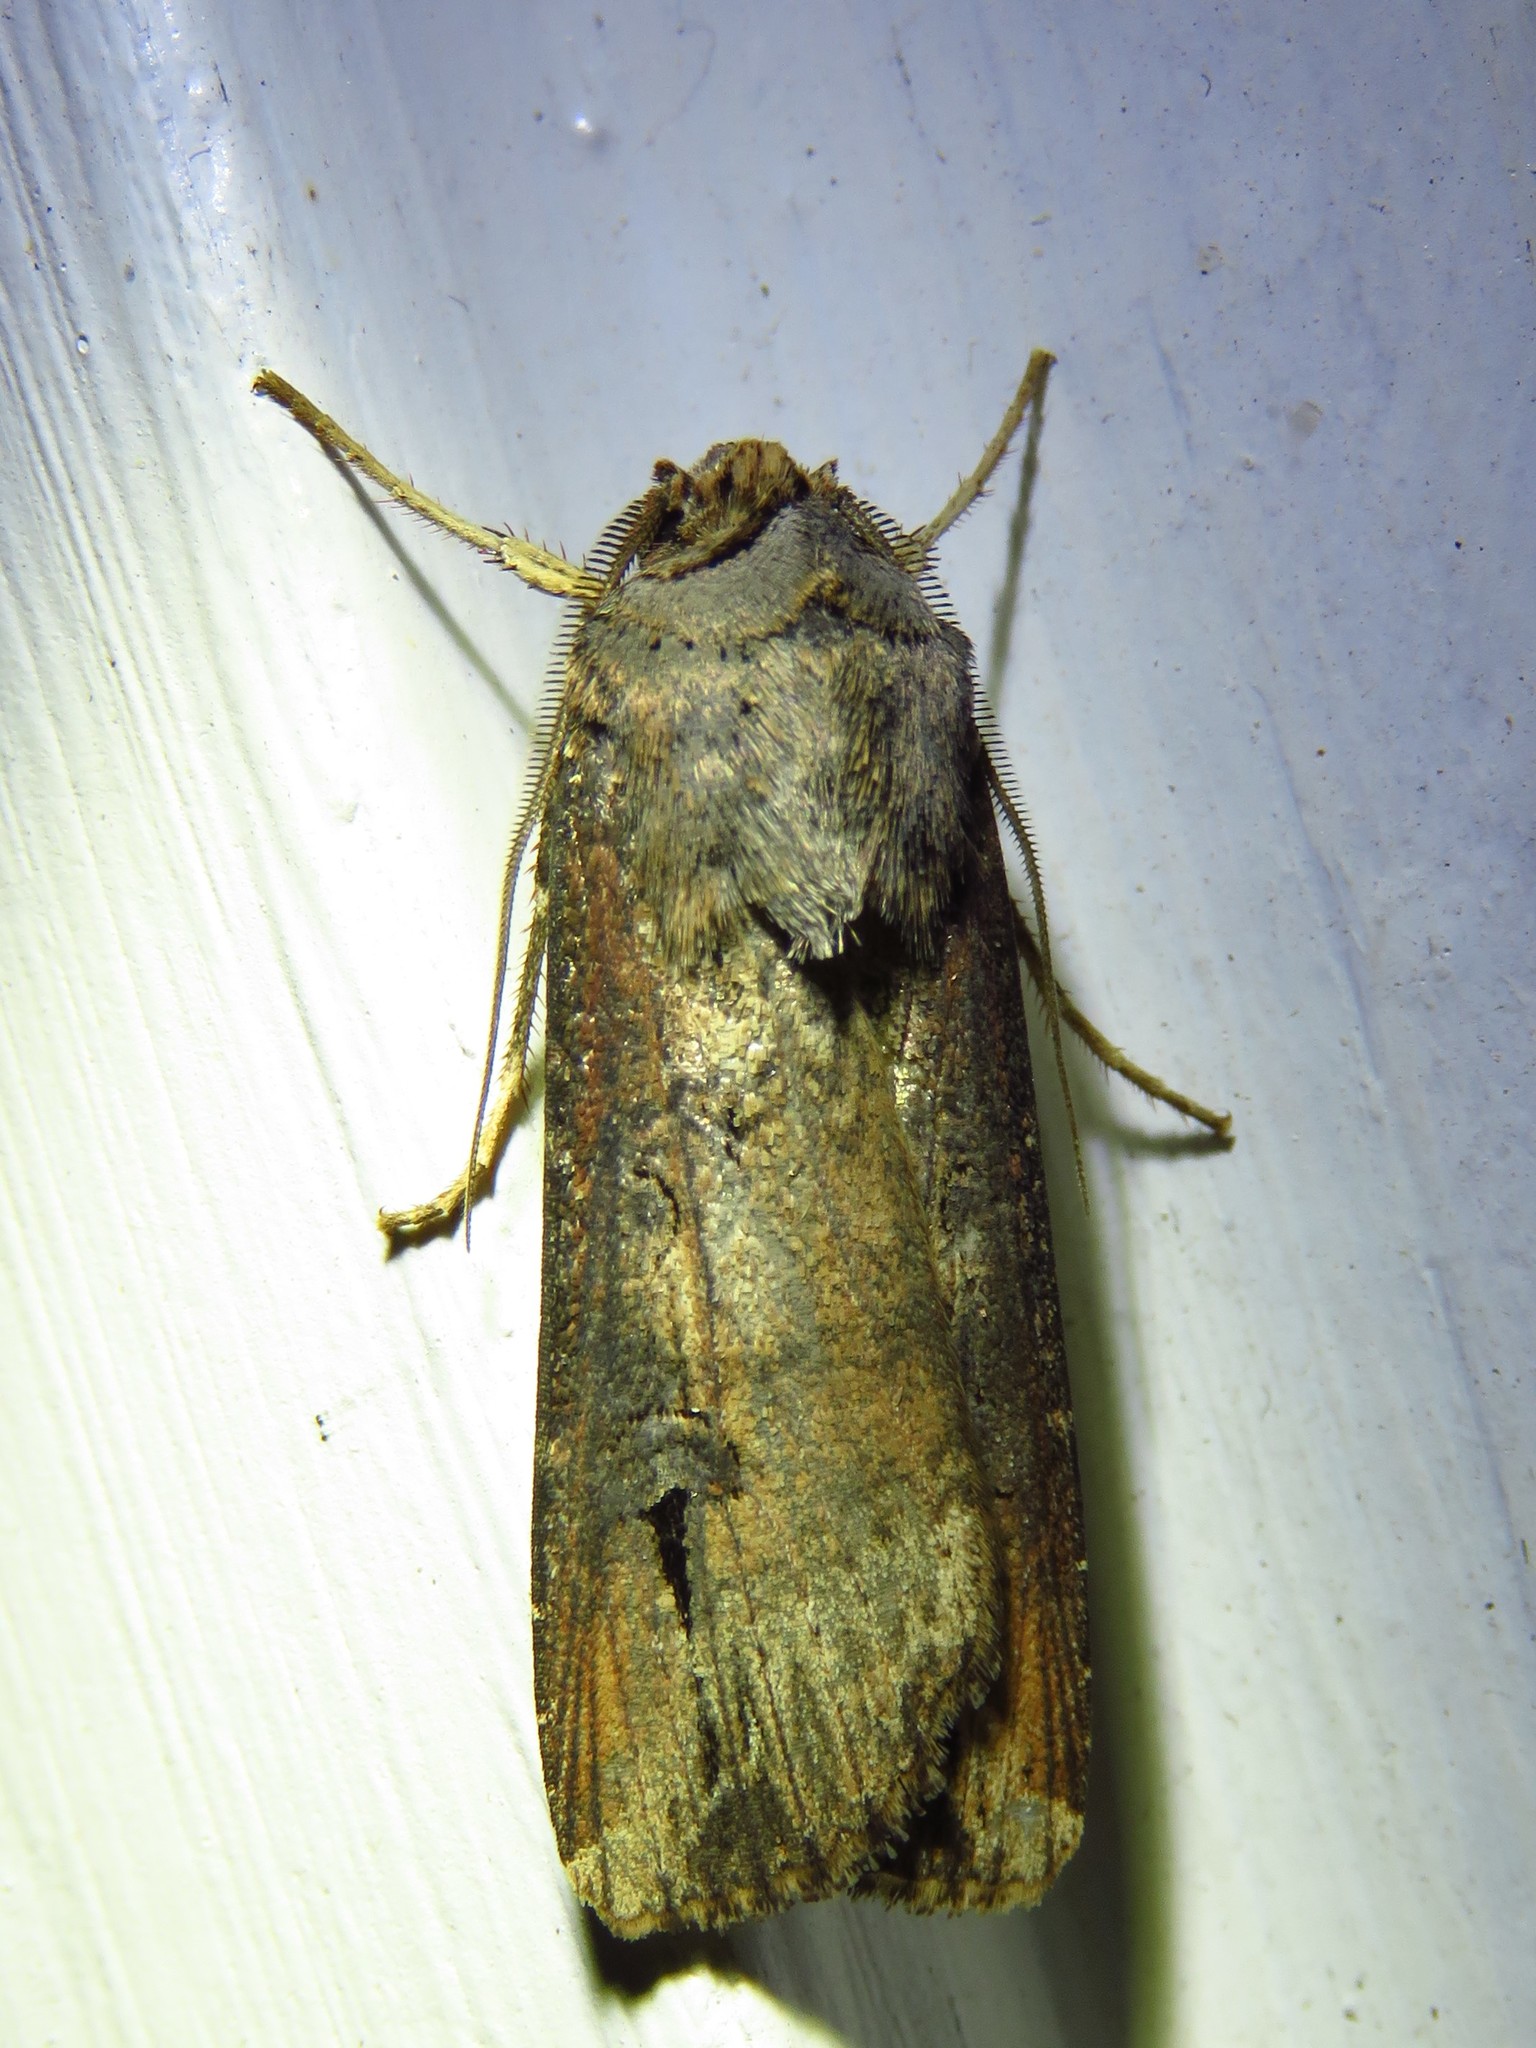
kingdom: Animalia
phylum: Arthropoda
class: Insecta
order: Lepidoptera
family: Noctuidae
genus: Agrotis
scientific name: Agrotis ipsilon
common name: Dark sword-grass
